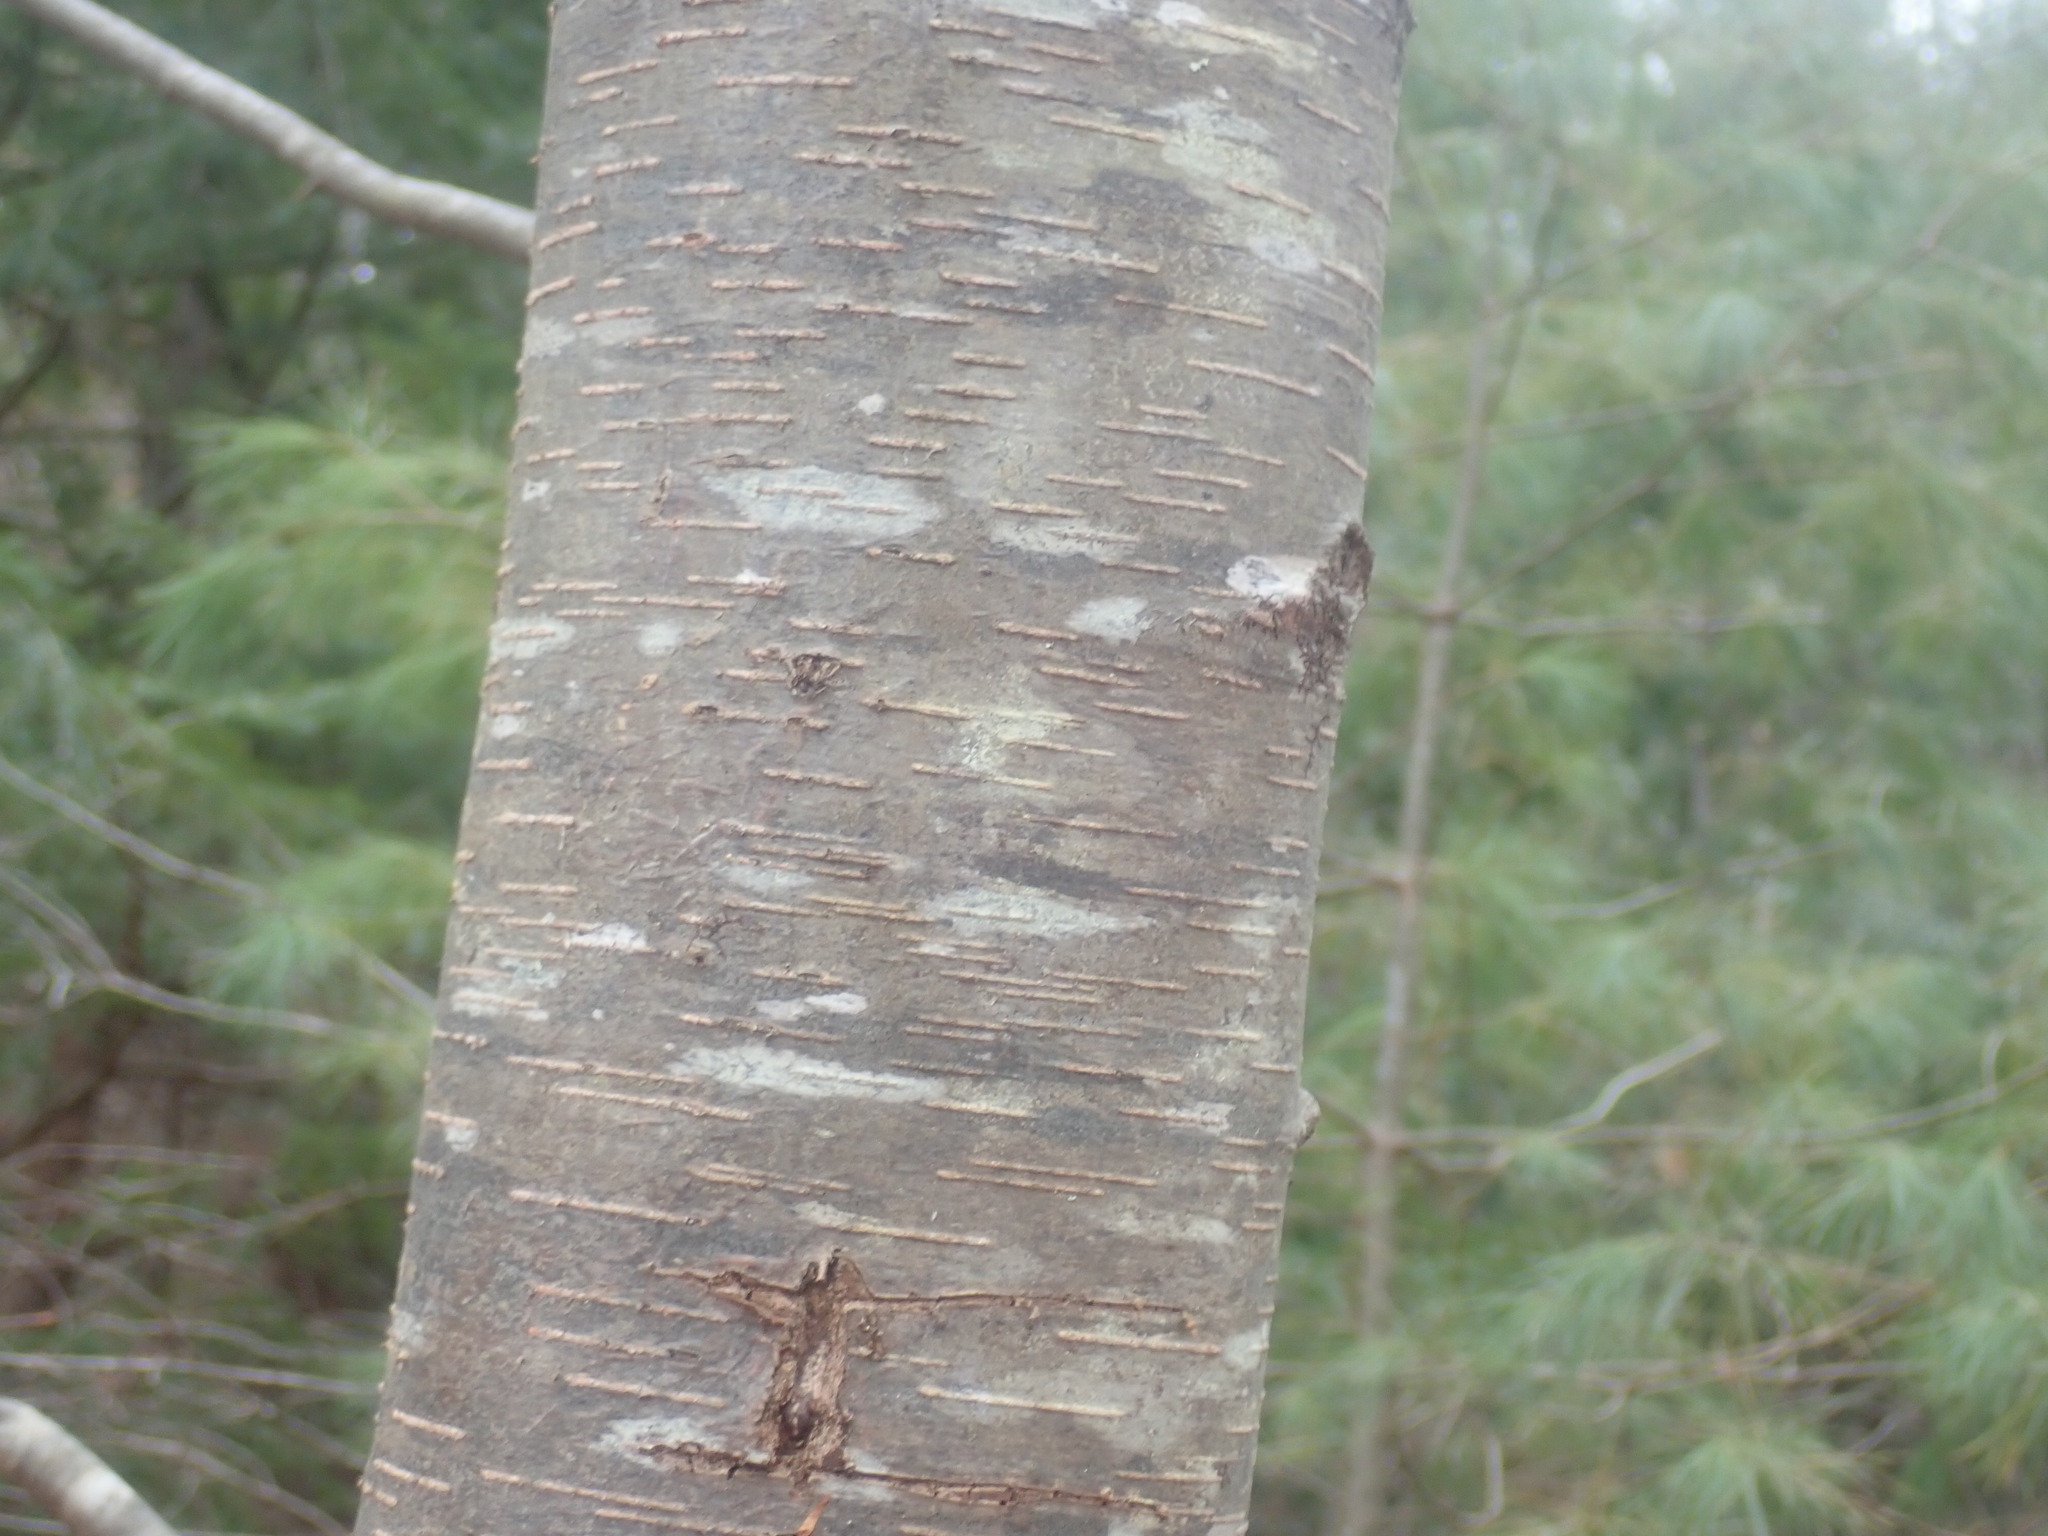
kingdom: Plantae
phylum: Tracheophyta
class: Magnoliopsida
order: Fagales
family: Betulaceae
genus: Betula
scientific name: Betula lenta
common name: Black birch
